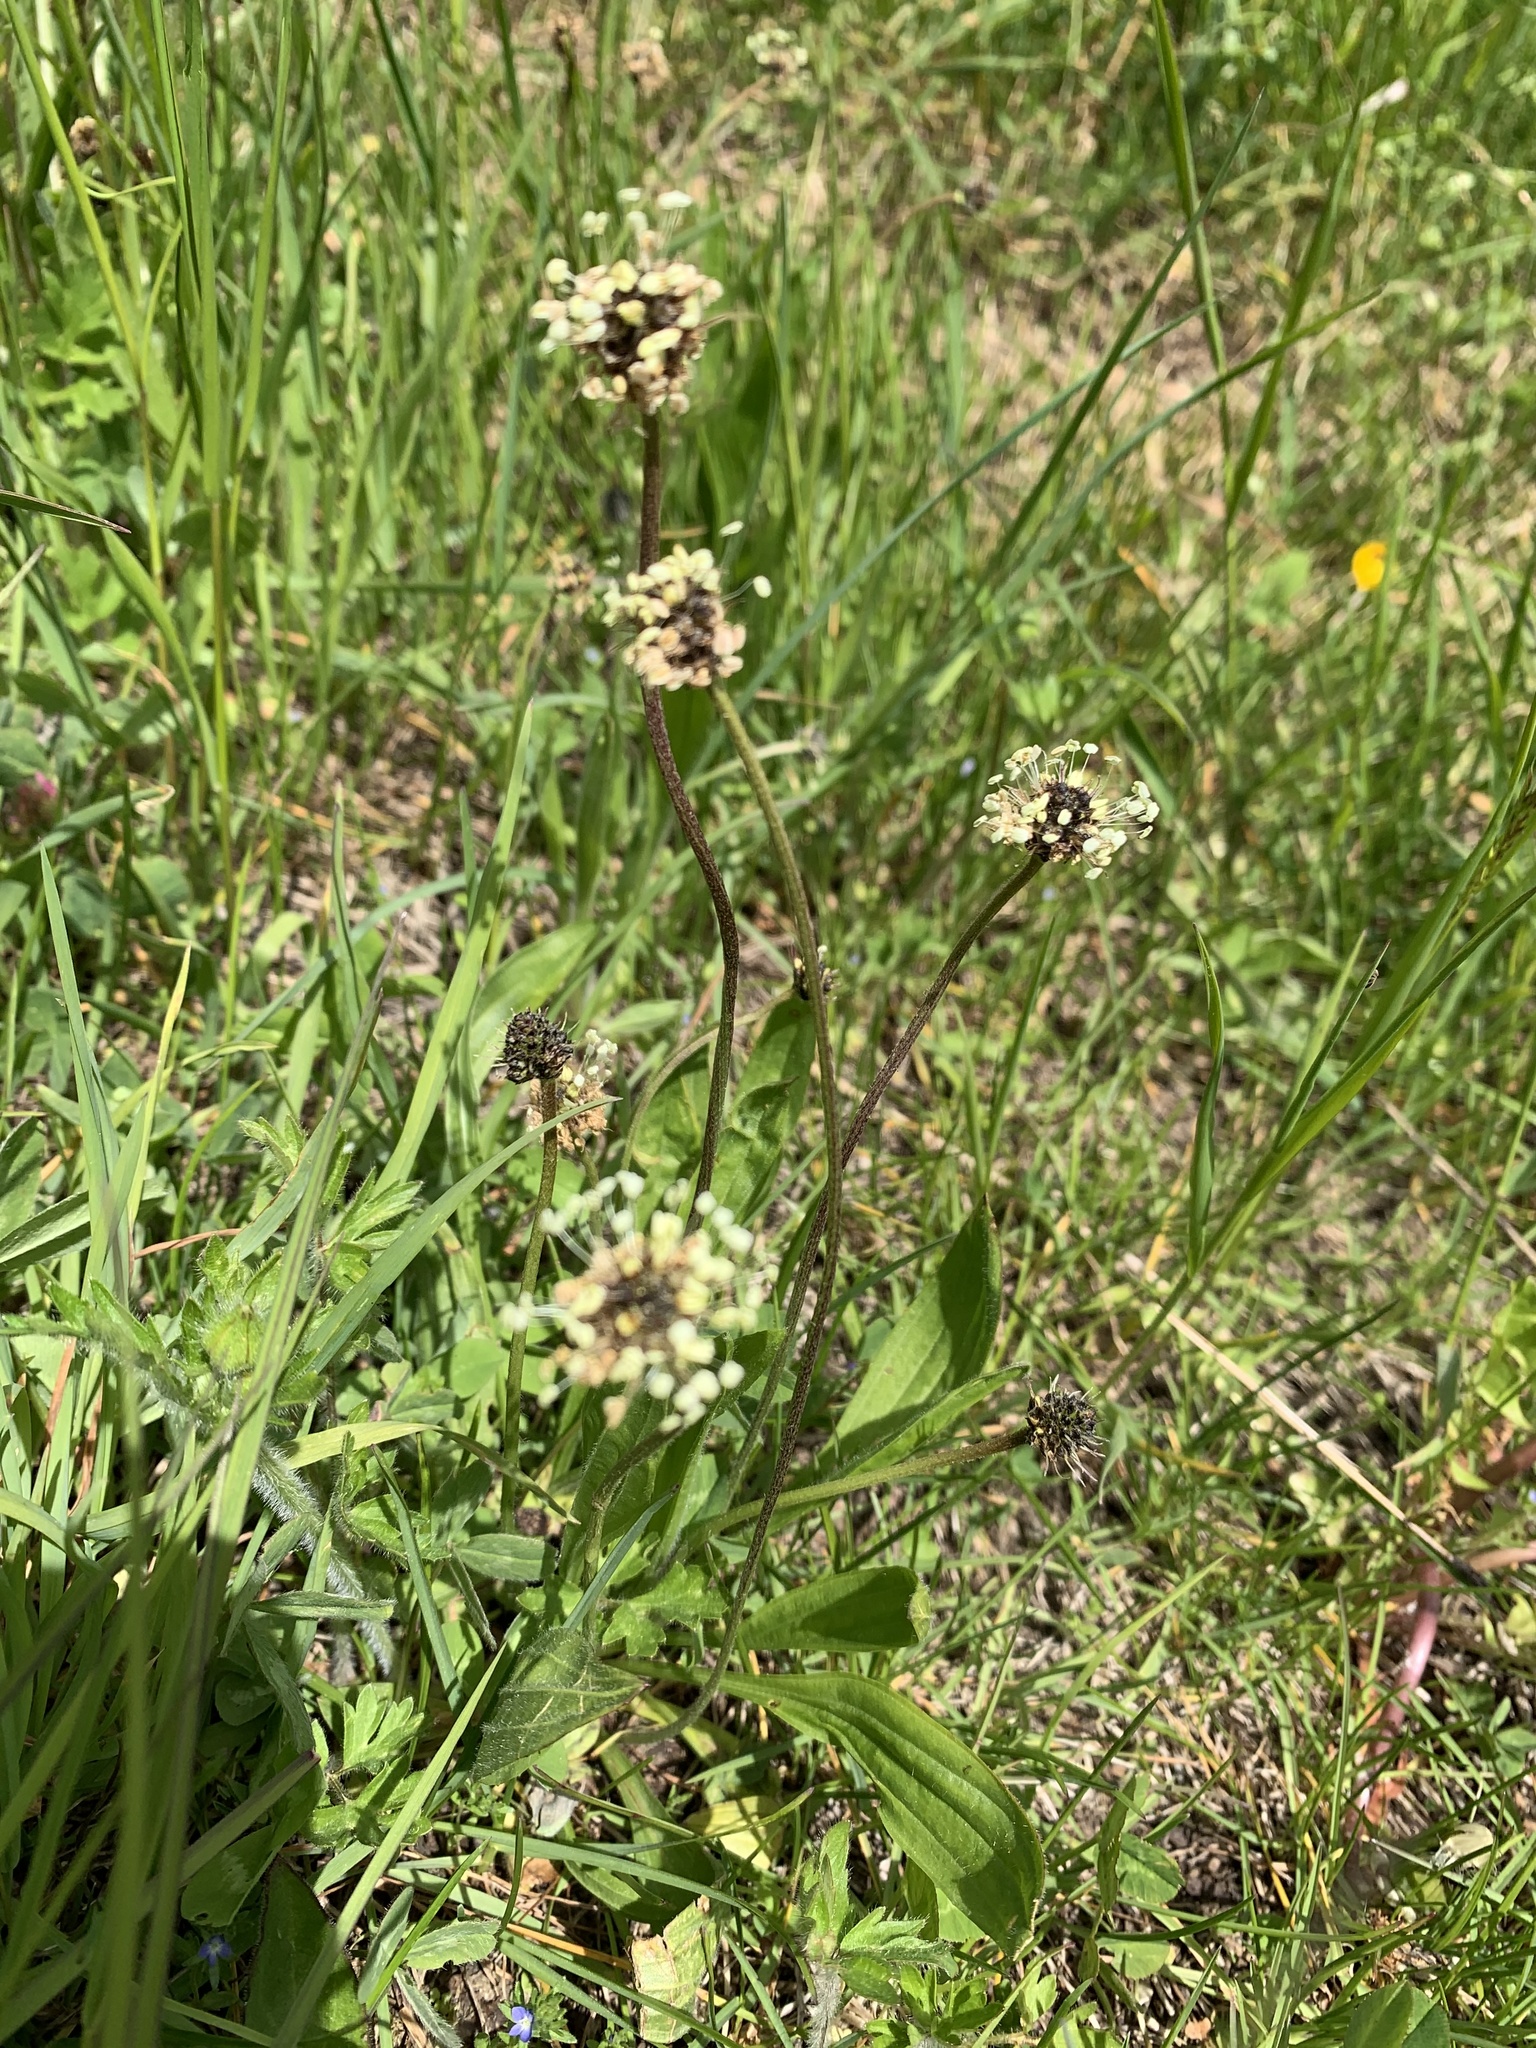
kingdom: Plantae
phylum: Tracheophyta
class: Magnoliopsida
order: Lamiales
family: Plantaginaceae
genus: Plantago
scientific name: Plantago lanceolata
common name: Ribwort plantain
